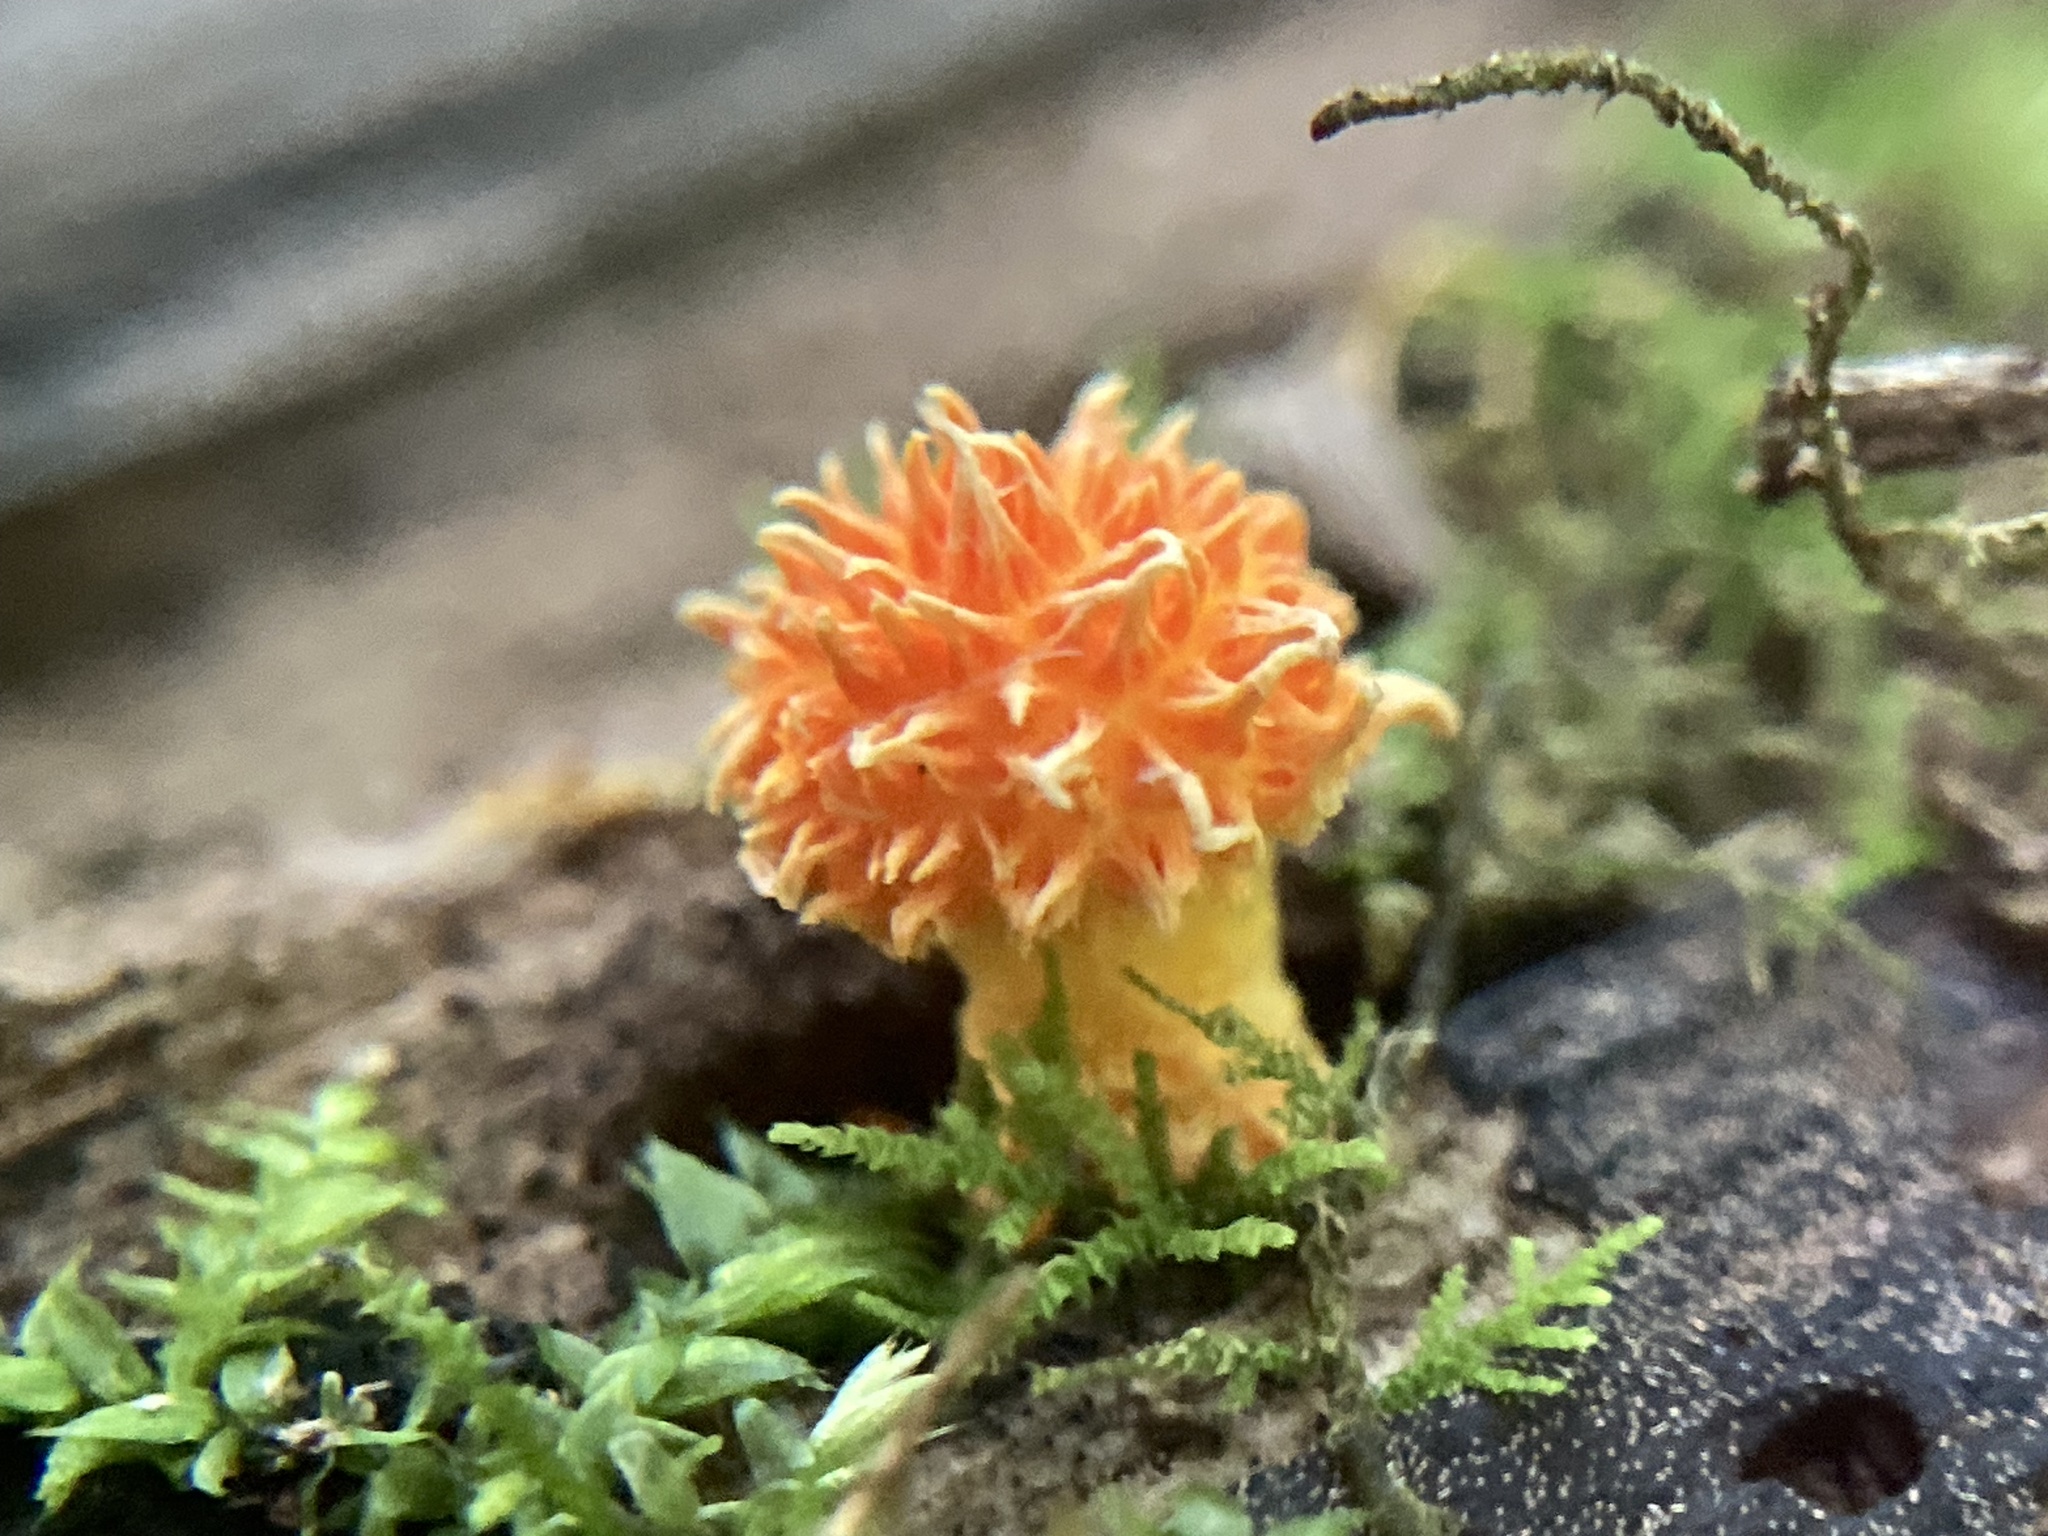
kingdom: Fungi
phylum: Basidiomycota
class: Agaricomycetes
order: Agaricales
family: Physalacriaceae
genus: Cyptotrama
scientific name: Cyptotrama asprata
